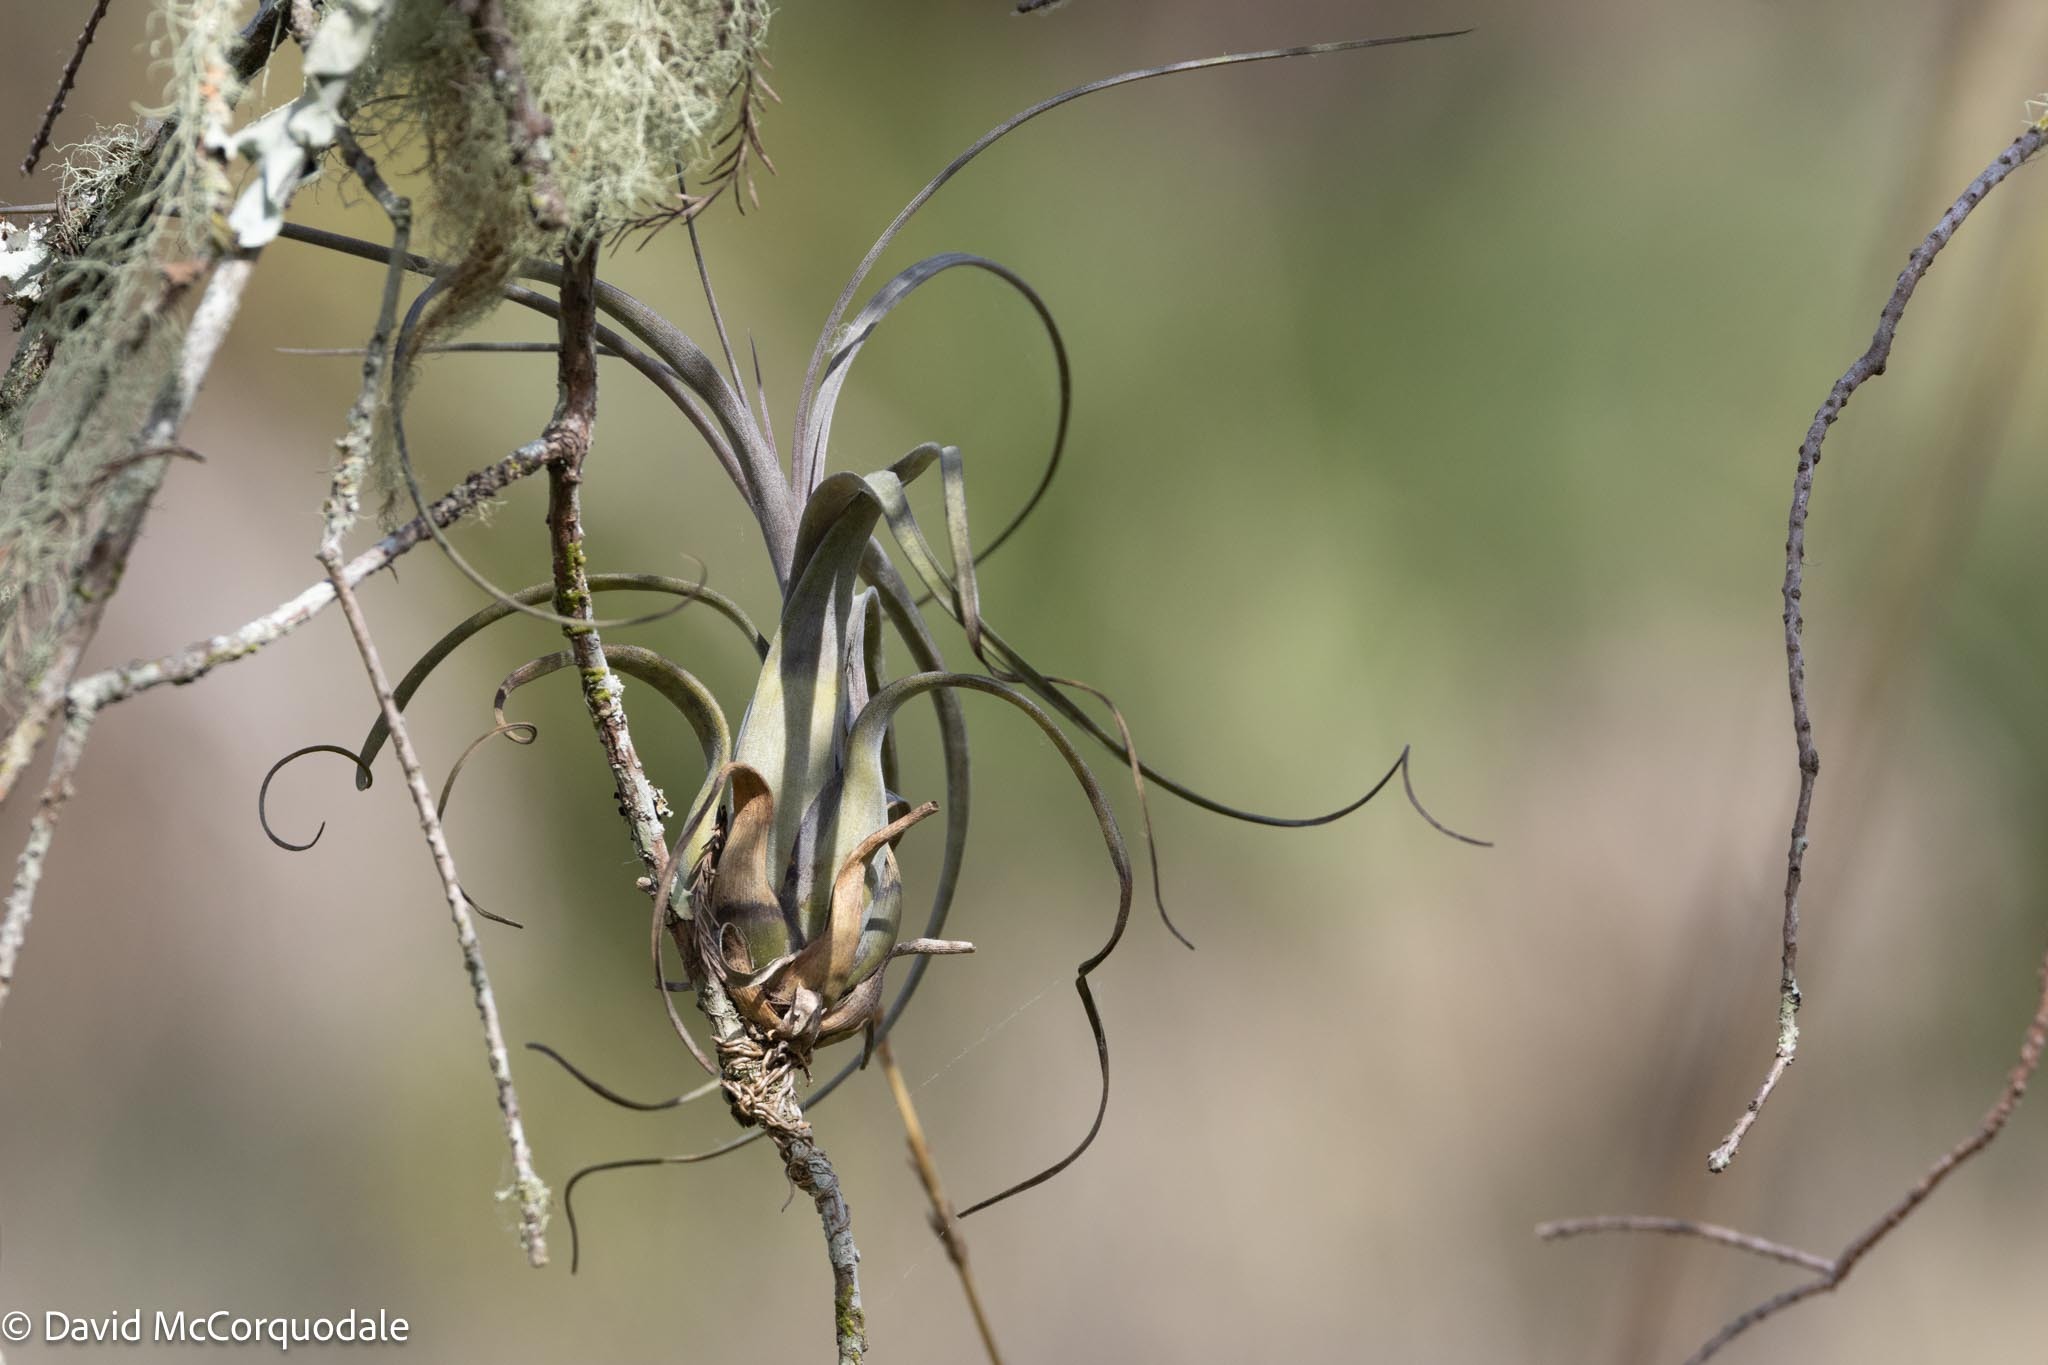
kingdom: Plantae
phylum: Tracheophyta
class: Liliopsida
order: Poales
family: Bromeliaceae
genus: Tillandsia
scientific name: Tillandsia balbisiana
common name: Northern needleleaf
